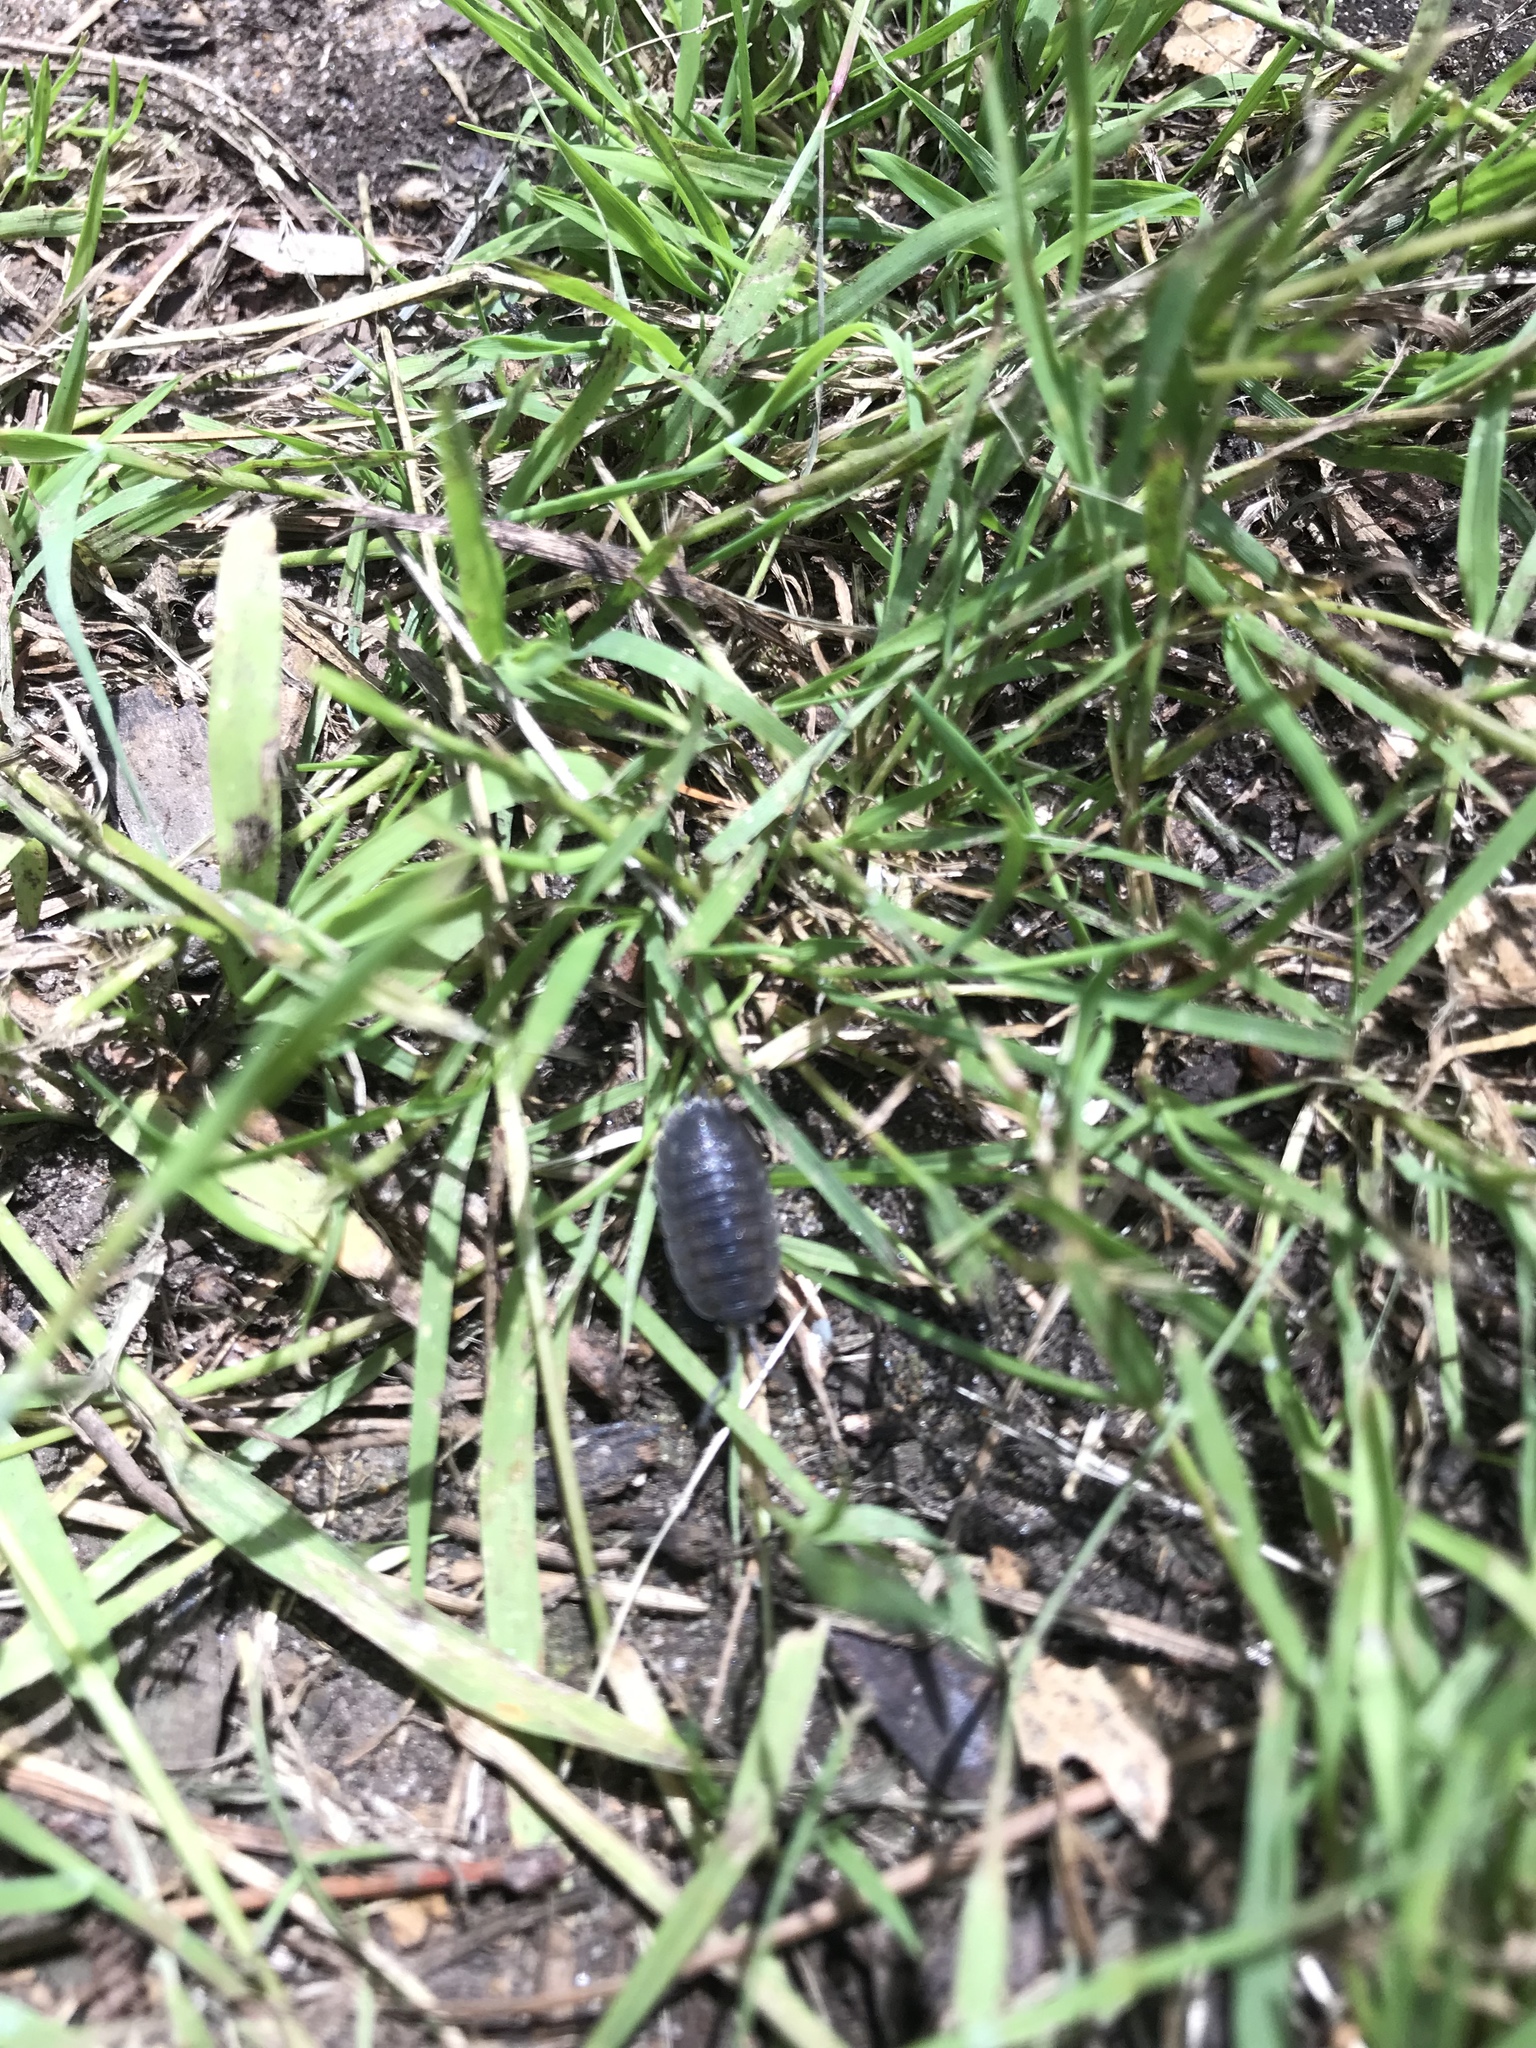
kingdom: Animalia
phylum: Arthropoda
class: Malacostraca
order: Isopoda
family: Porcellionidae
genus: Porcellio
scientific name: Porcellio scaber
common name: Common rough woodlouse
